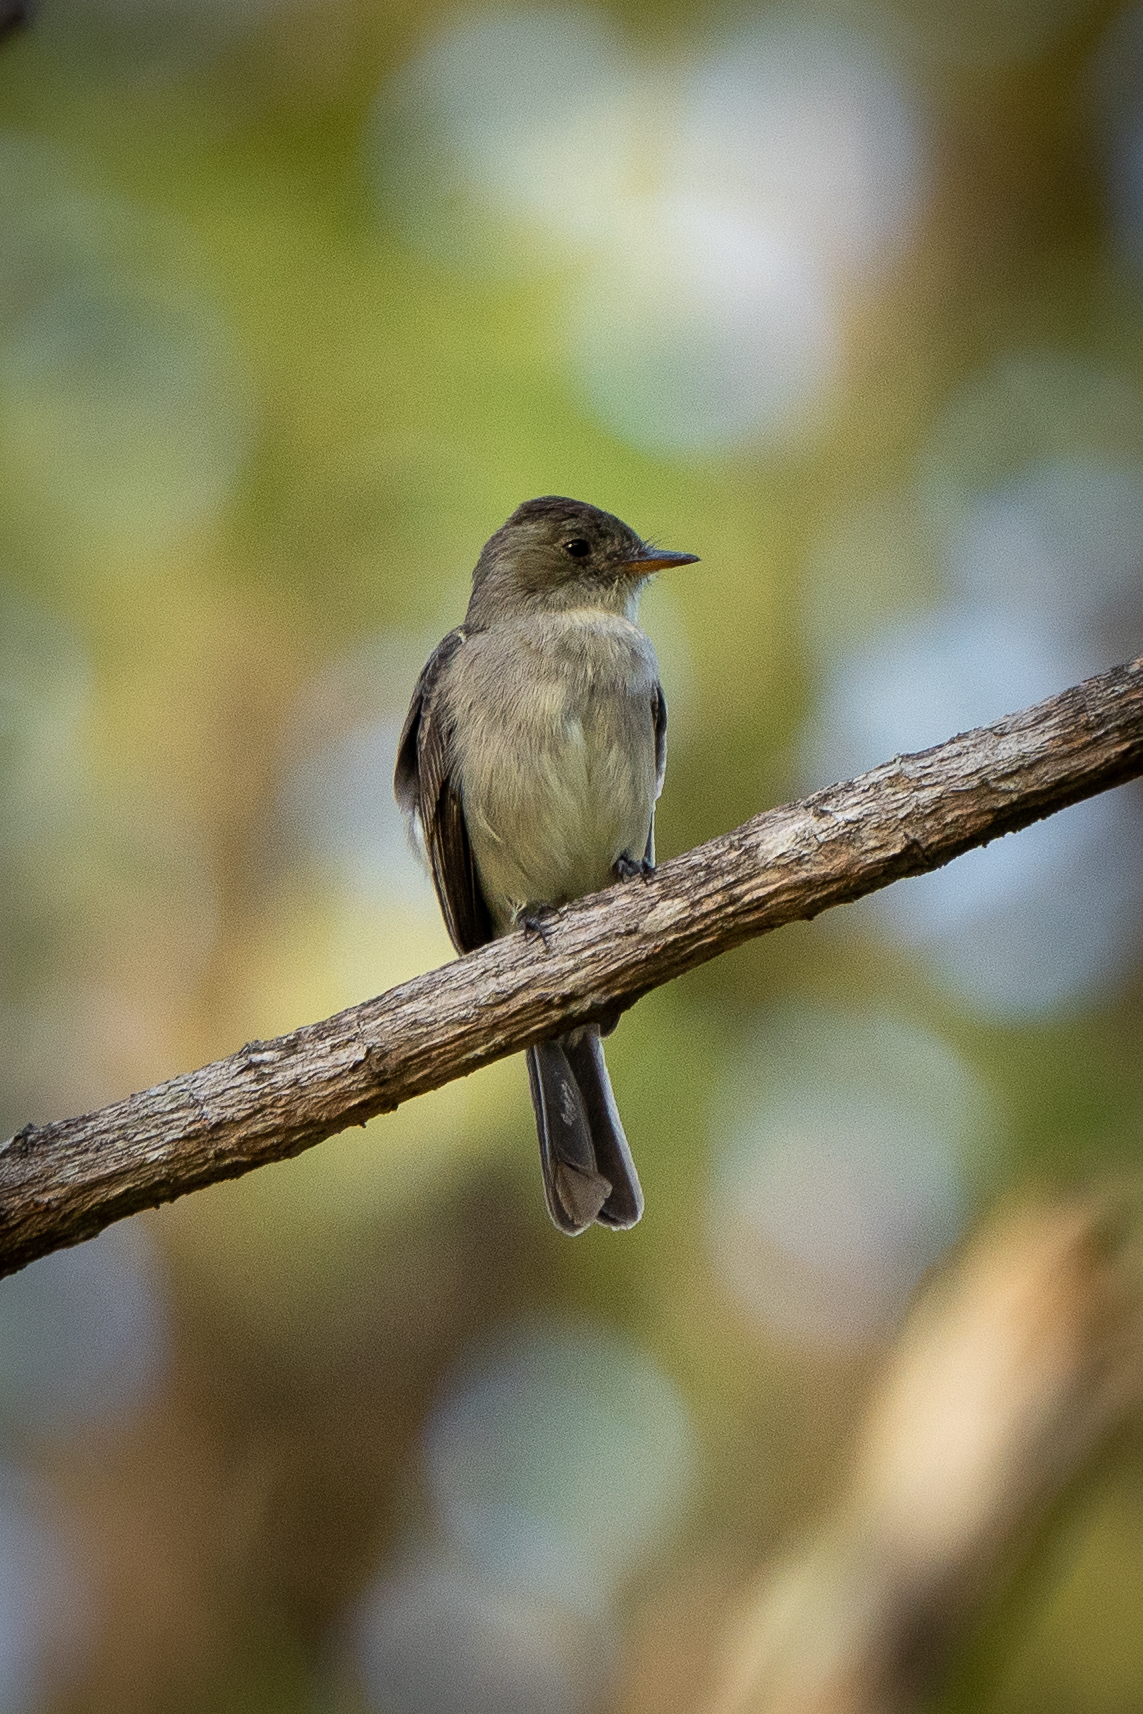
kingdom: Animalia
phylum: Chordata
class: Aves
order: Passeriformes
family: Tyrannidae
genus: Contopus
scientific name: Contopus cinereus
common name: Tropical pewee
